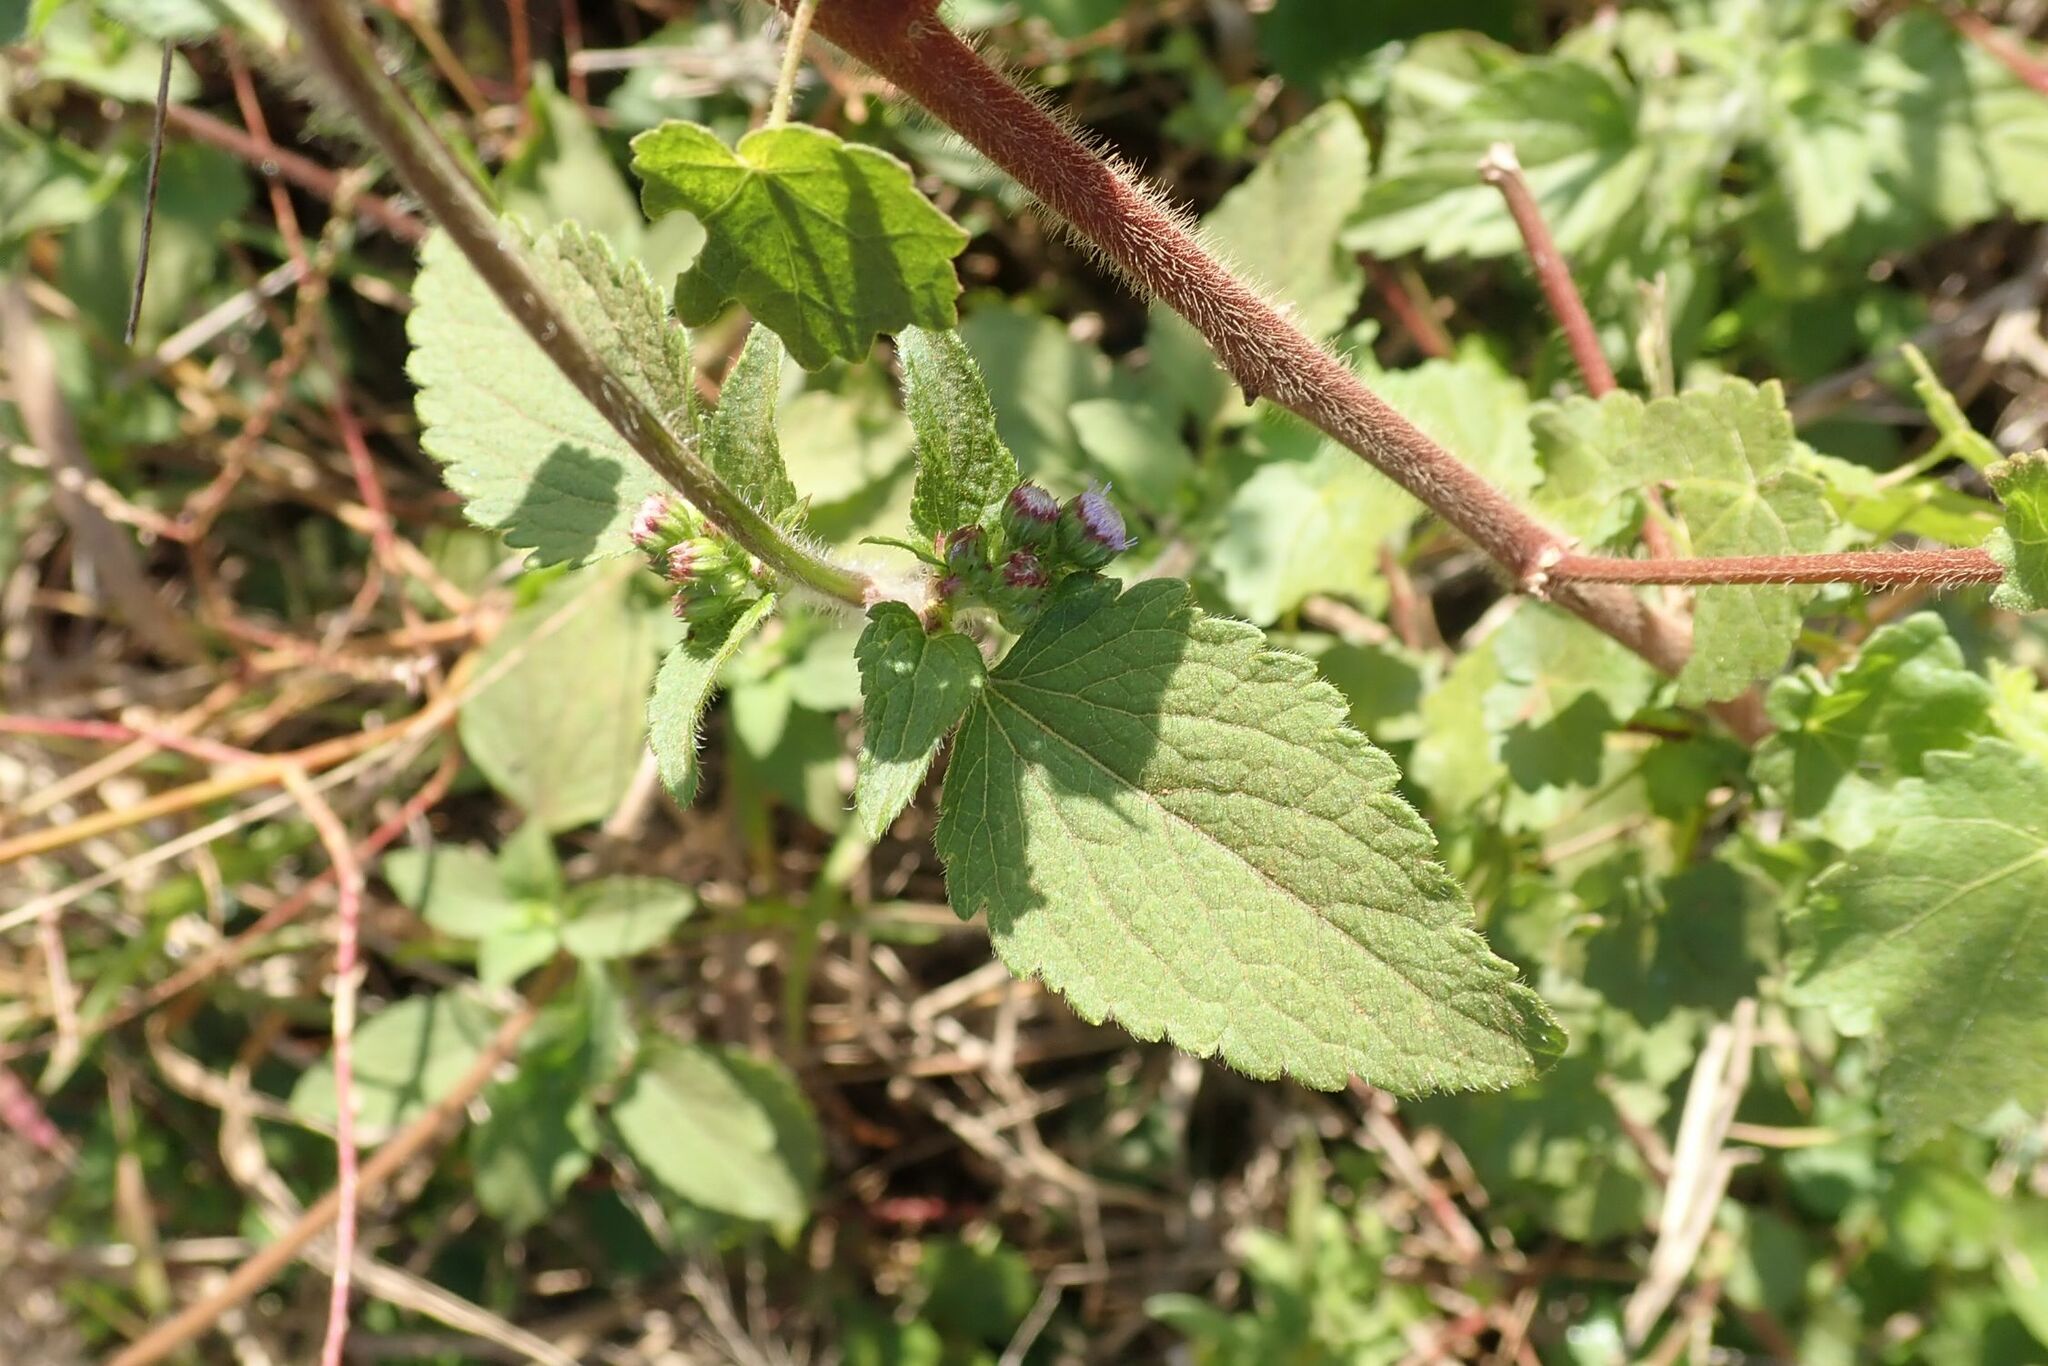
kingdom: Plantae
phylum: Tracheophyta
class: Magnoliopsida
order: Asterales
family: Asteraceae
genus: Ageratum
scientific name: Ageratum conyzoides
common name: Tropical whiteweed
